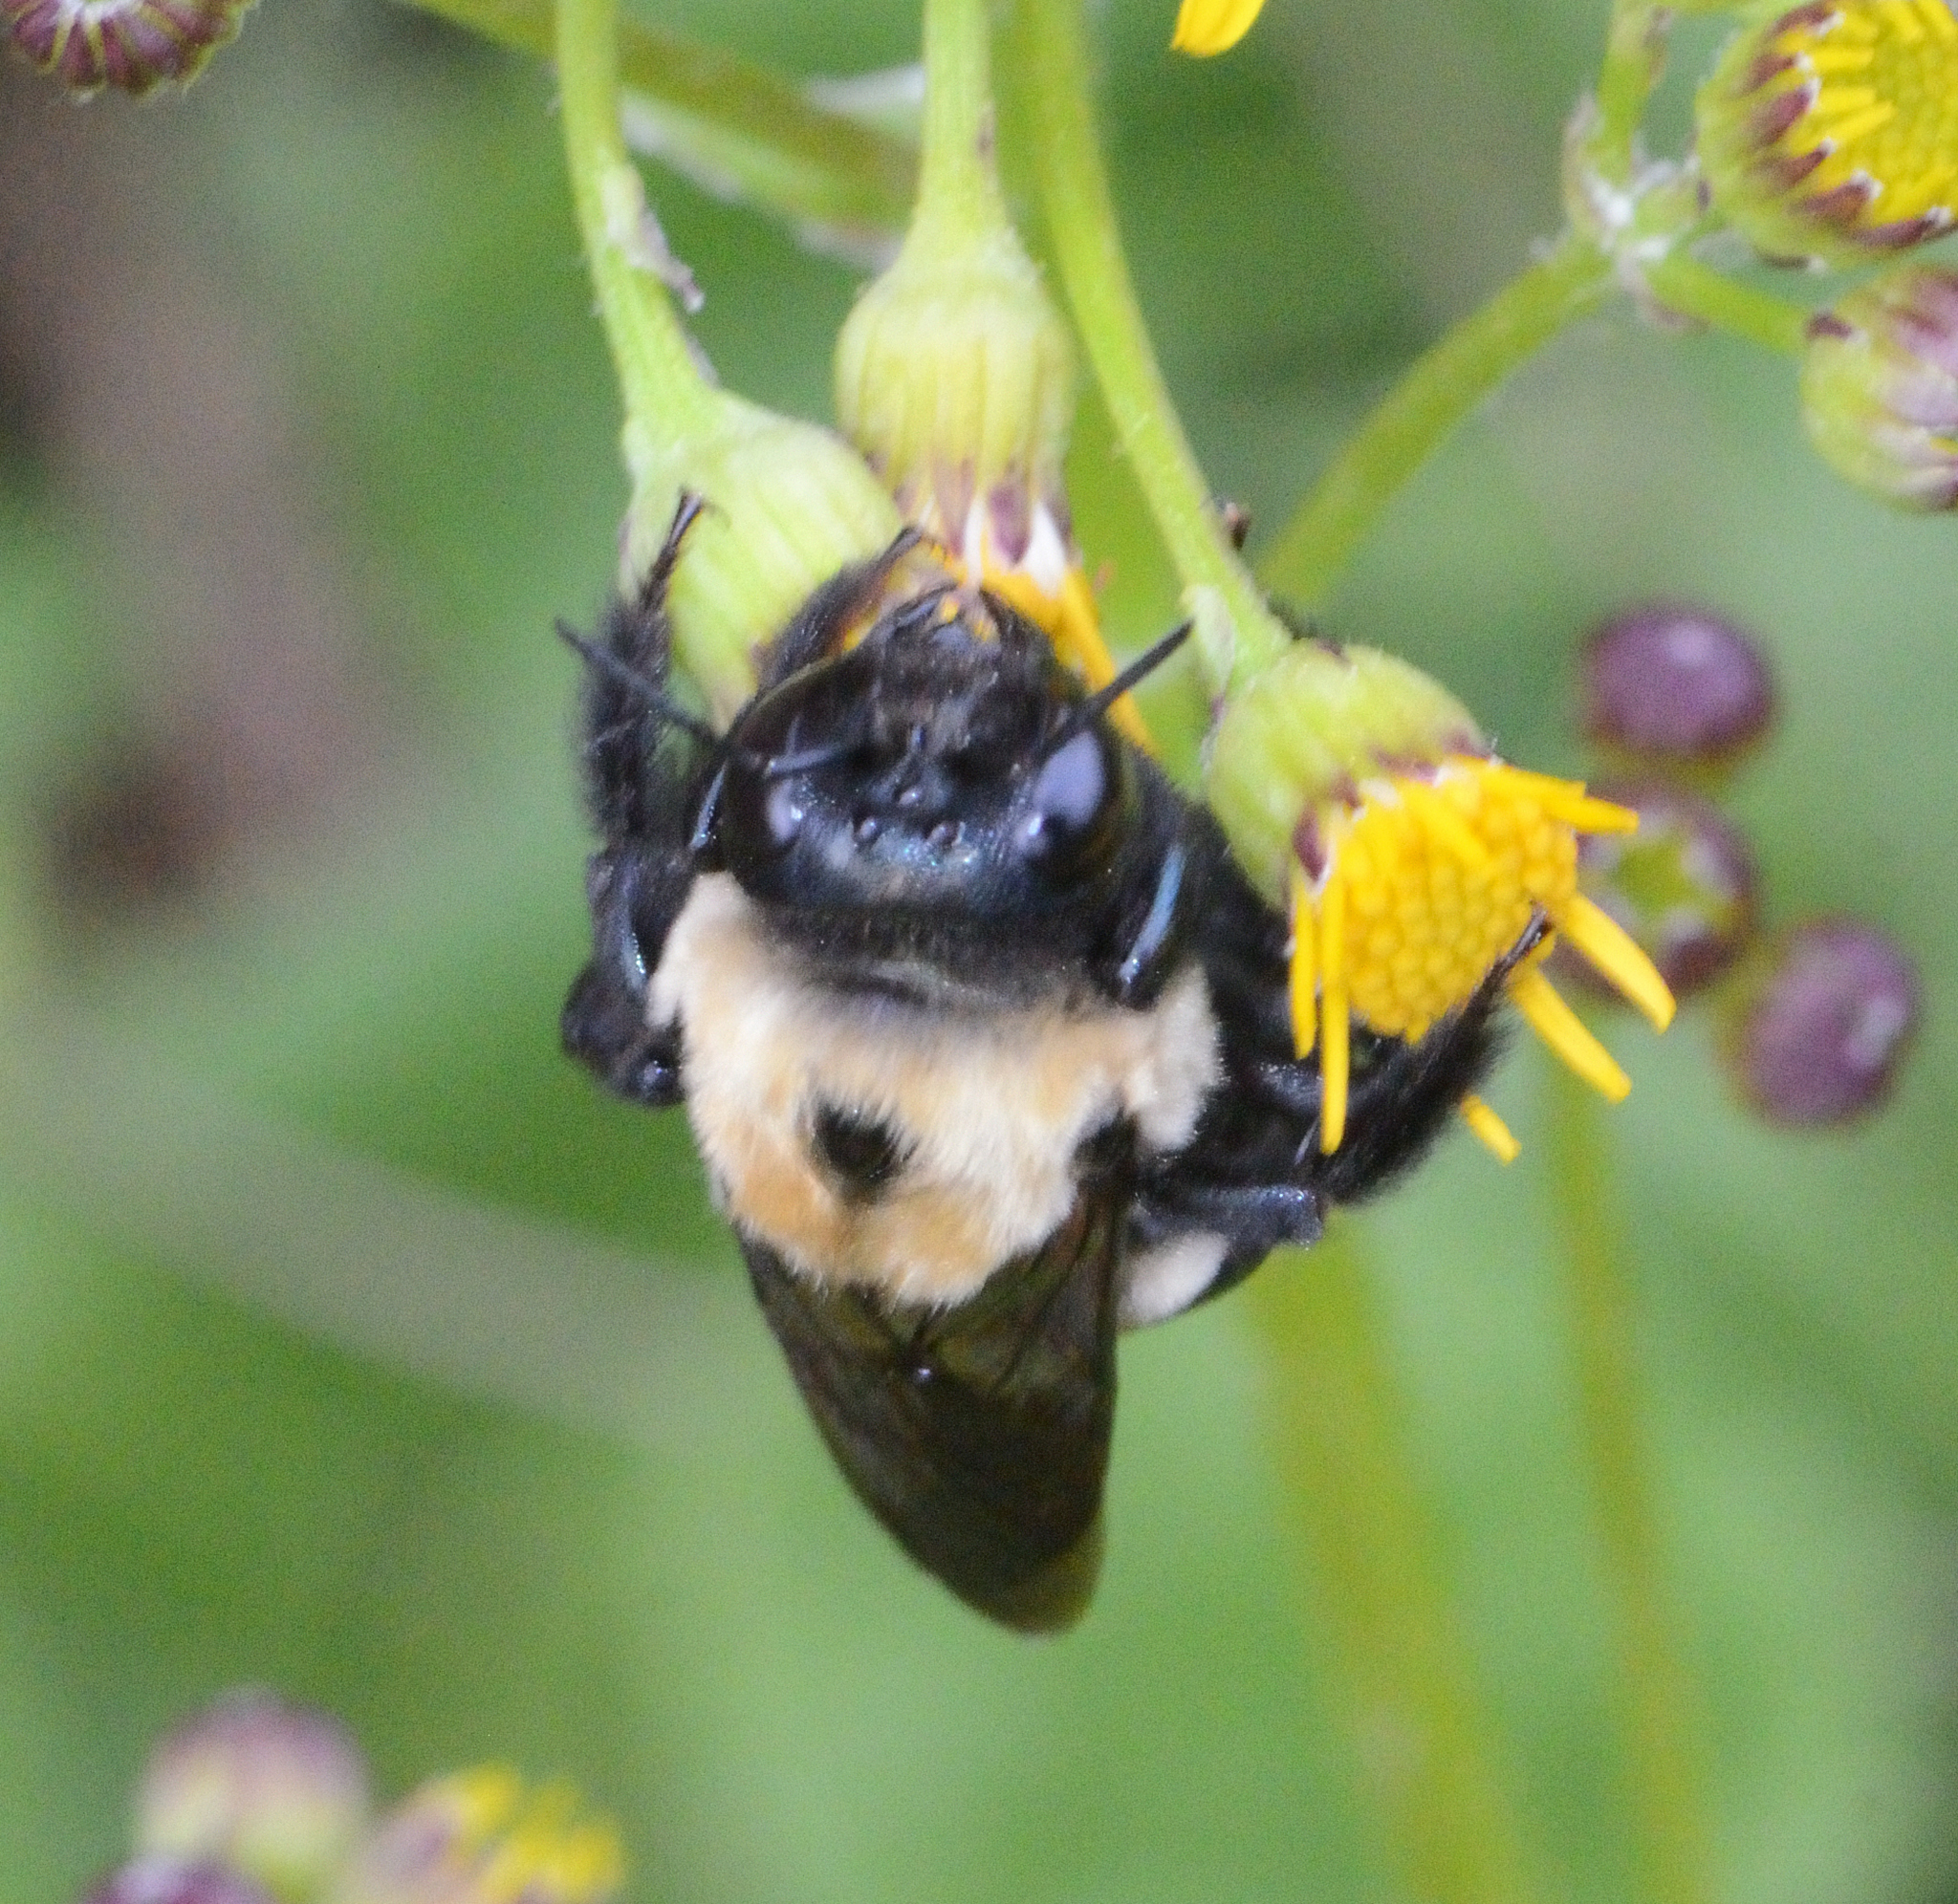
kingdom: Animalia
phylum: Arthropoda
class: Insecta
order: Hymenoptera
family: Apidae
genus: Xylocopa
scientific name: Xylocopa virginica
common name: Carpenter bee
